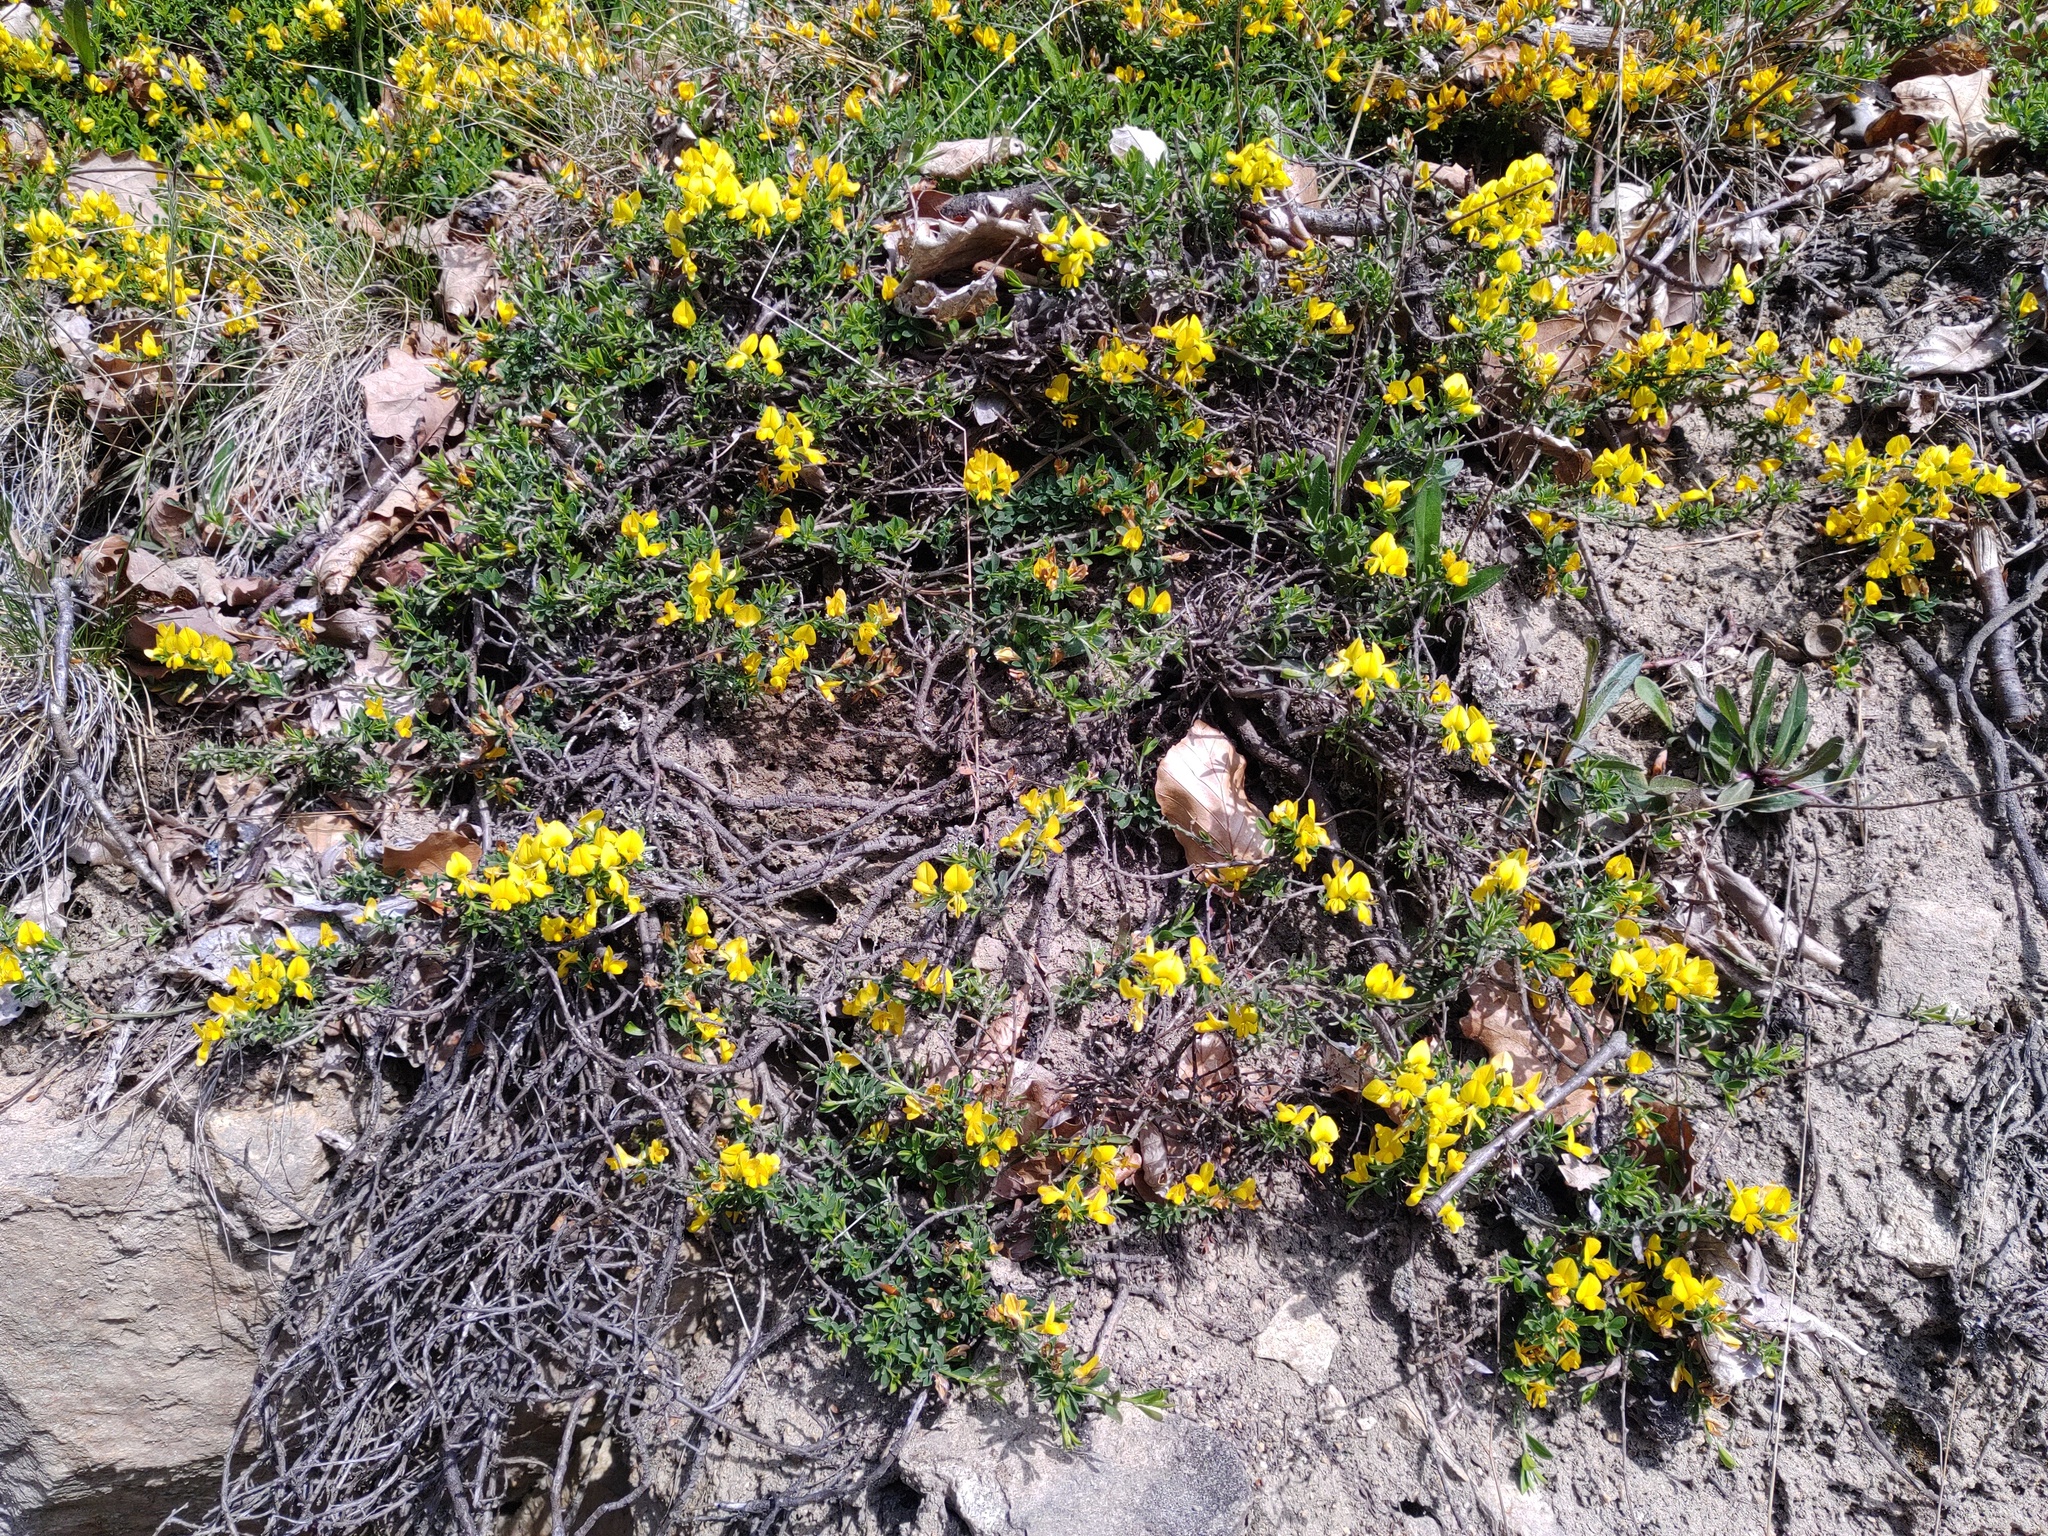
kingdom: Plantae
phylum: Tracheophyta
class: Magnoliopsida
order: Fabales
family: Fabaceae
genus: Genista
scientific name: Genista pilosa
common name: Hairy greenweed
